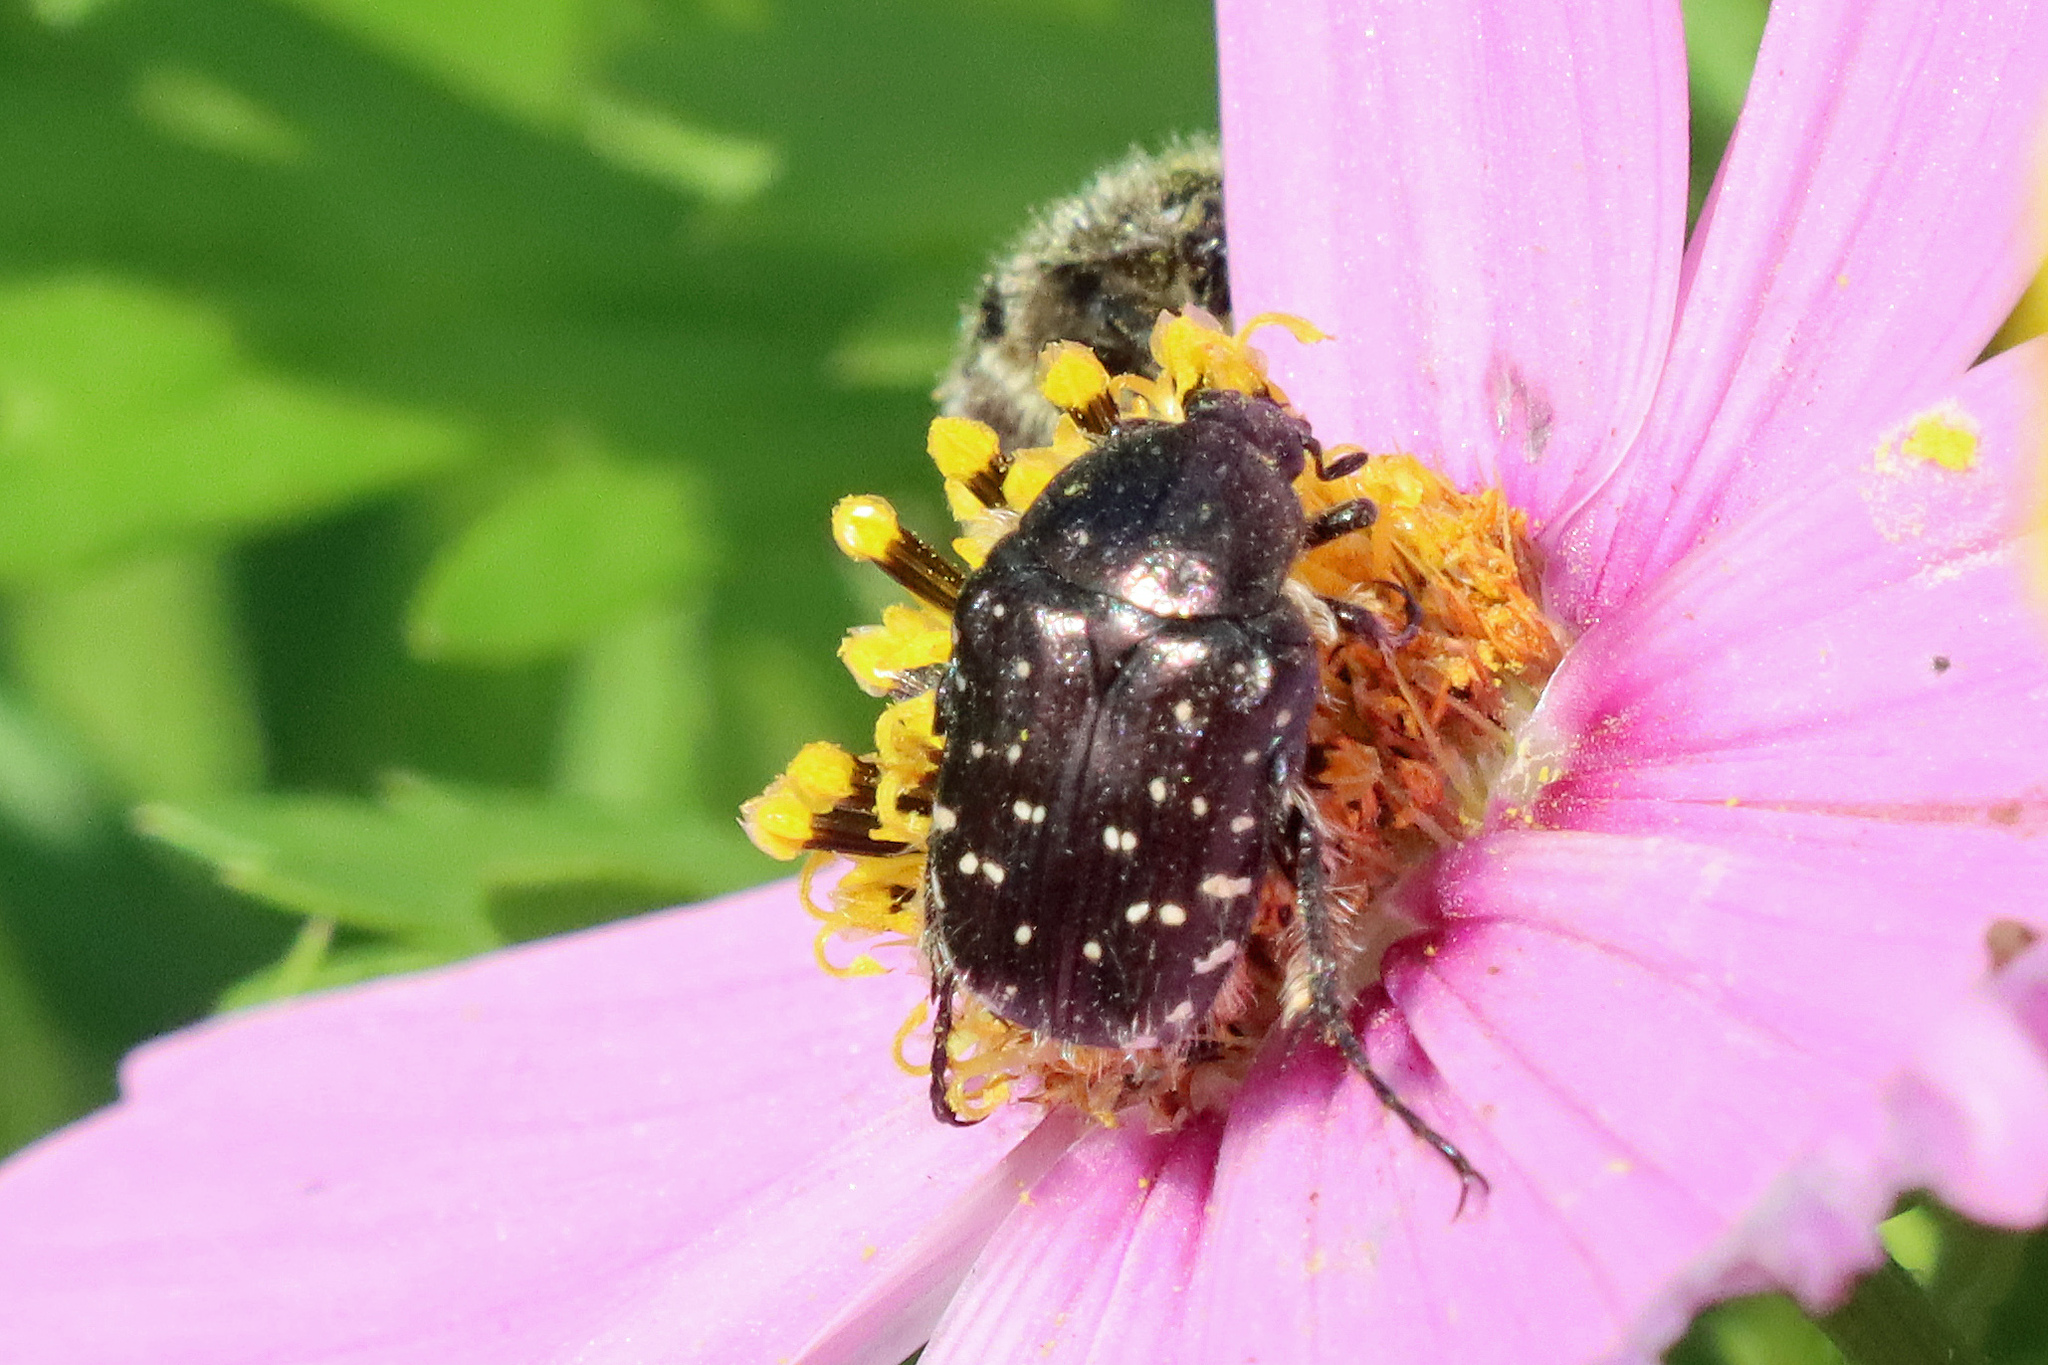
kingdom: Animalia
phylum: Arthropoda
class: Insecta
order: Coleoptera
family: Scarabaeidae
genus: Oxythyrea
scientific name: Oxythyrea funesta
